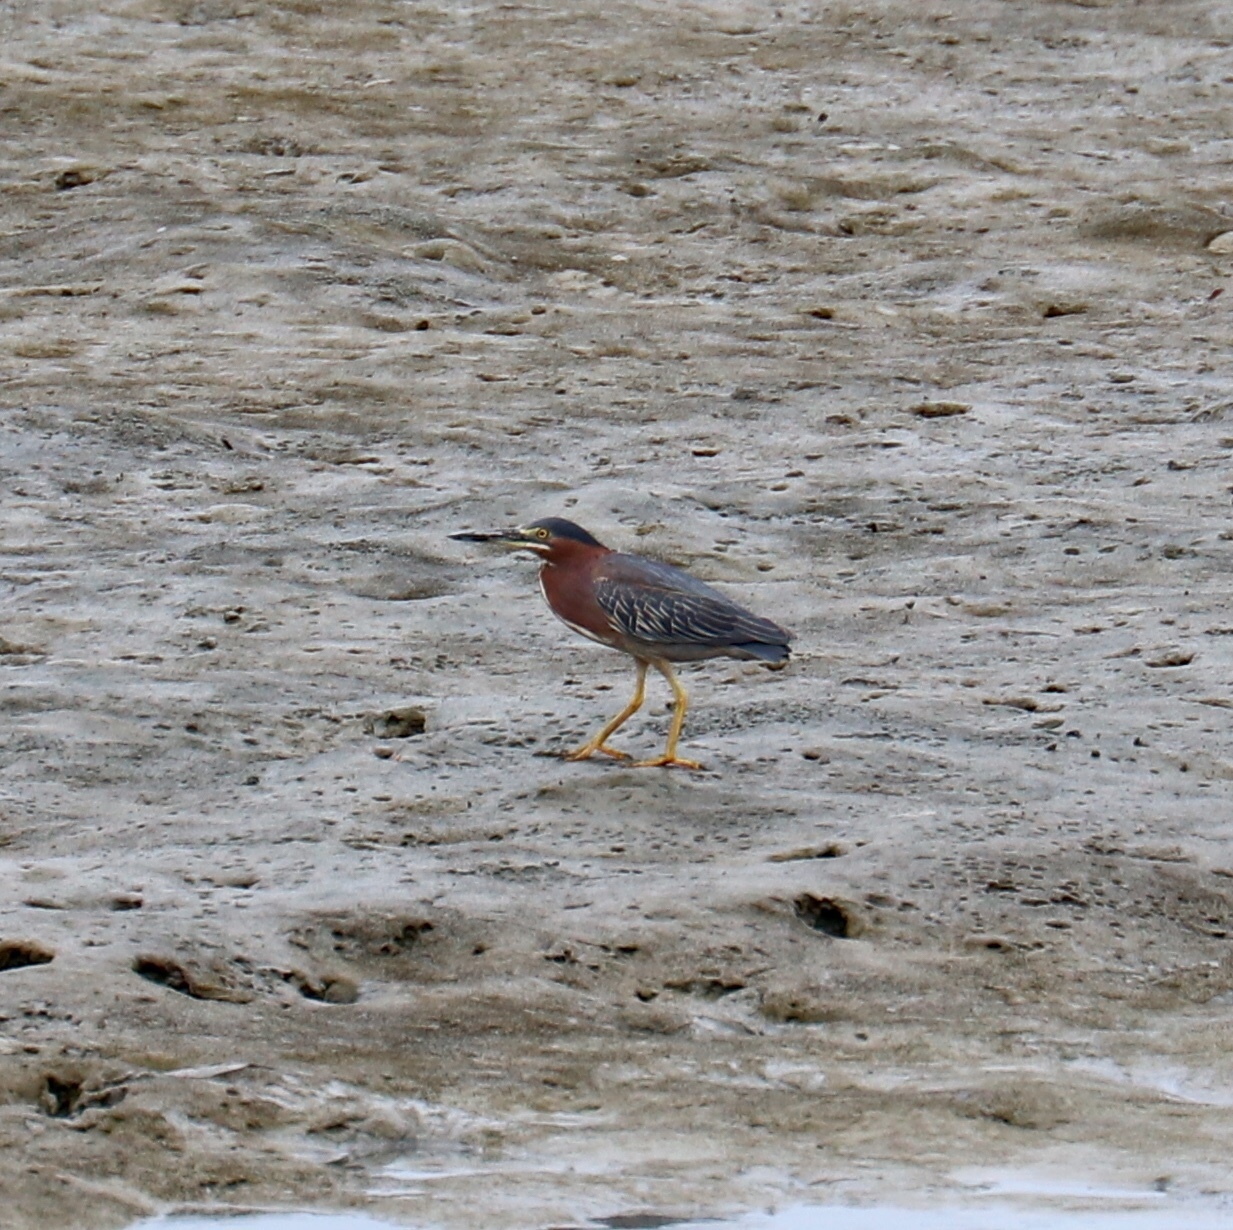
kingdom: Animalia
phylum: Chordata
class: Aves
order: Pelecaniformes
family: Ardeidae
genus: Butorides
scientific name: Butorides virescens
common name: Green heron
